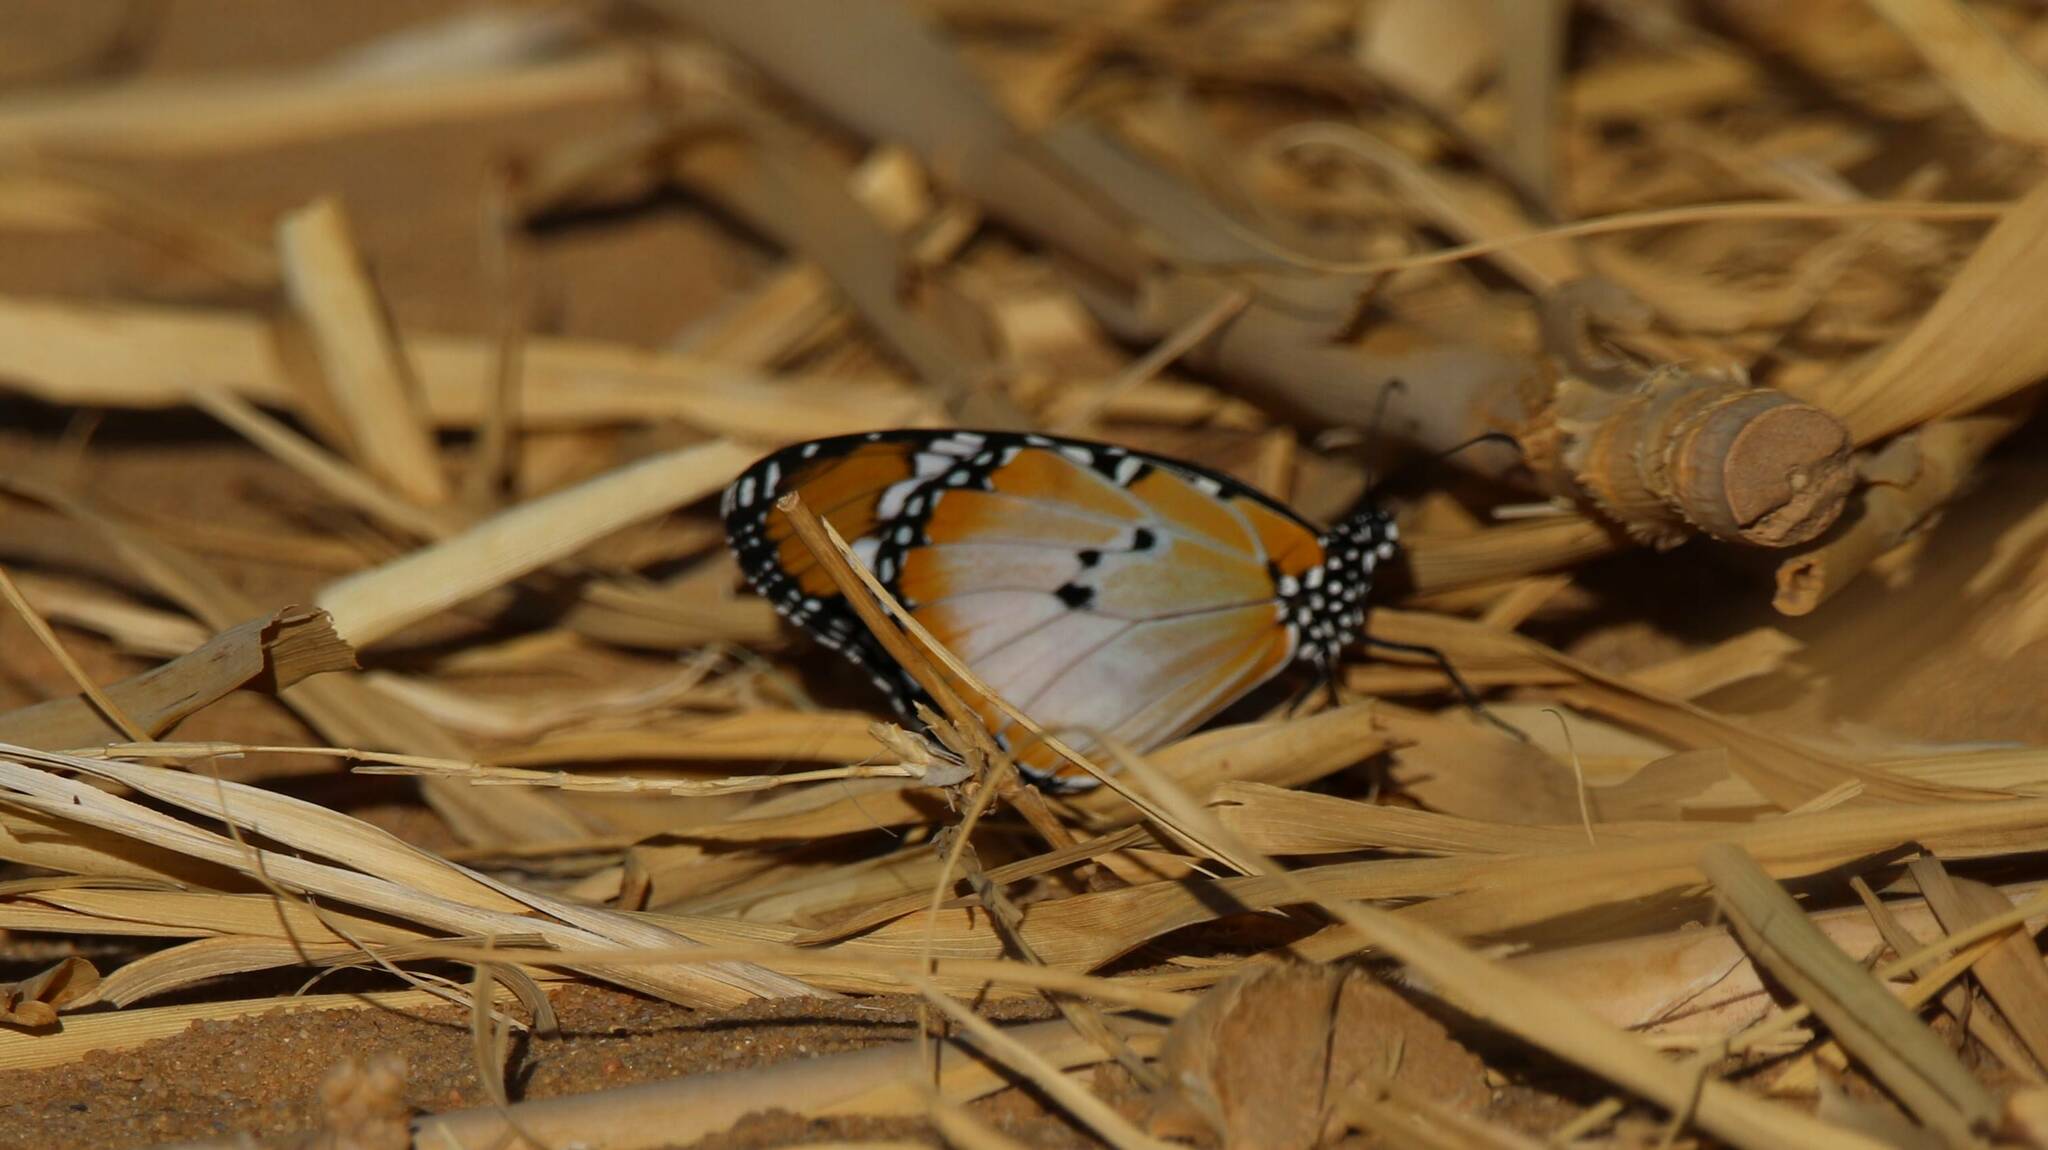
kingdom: Animalia
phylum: Arthropoda
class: Insecta
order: Lepidoptera
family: Nymphalidae
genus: Danaus
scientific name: Danaus chrysippus
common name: Plain tiger
